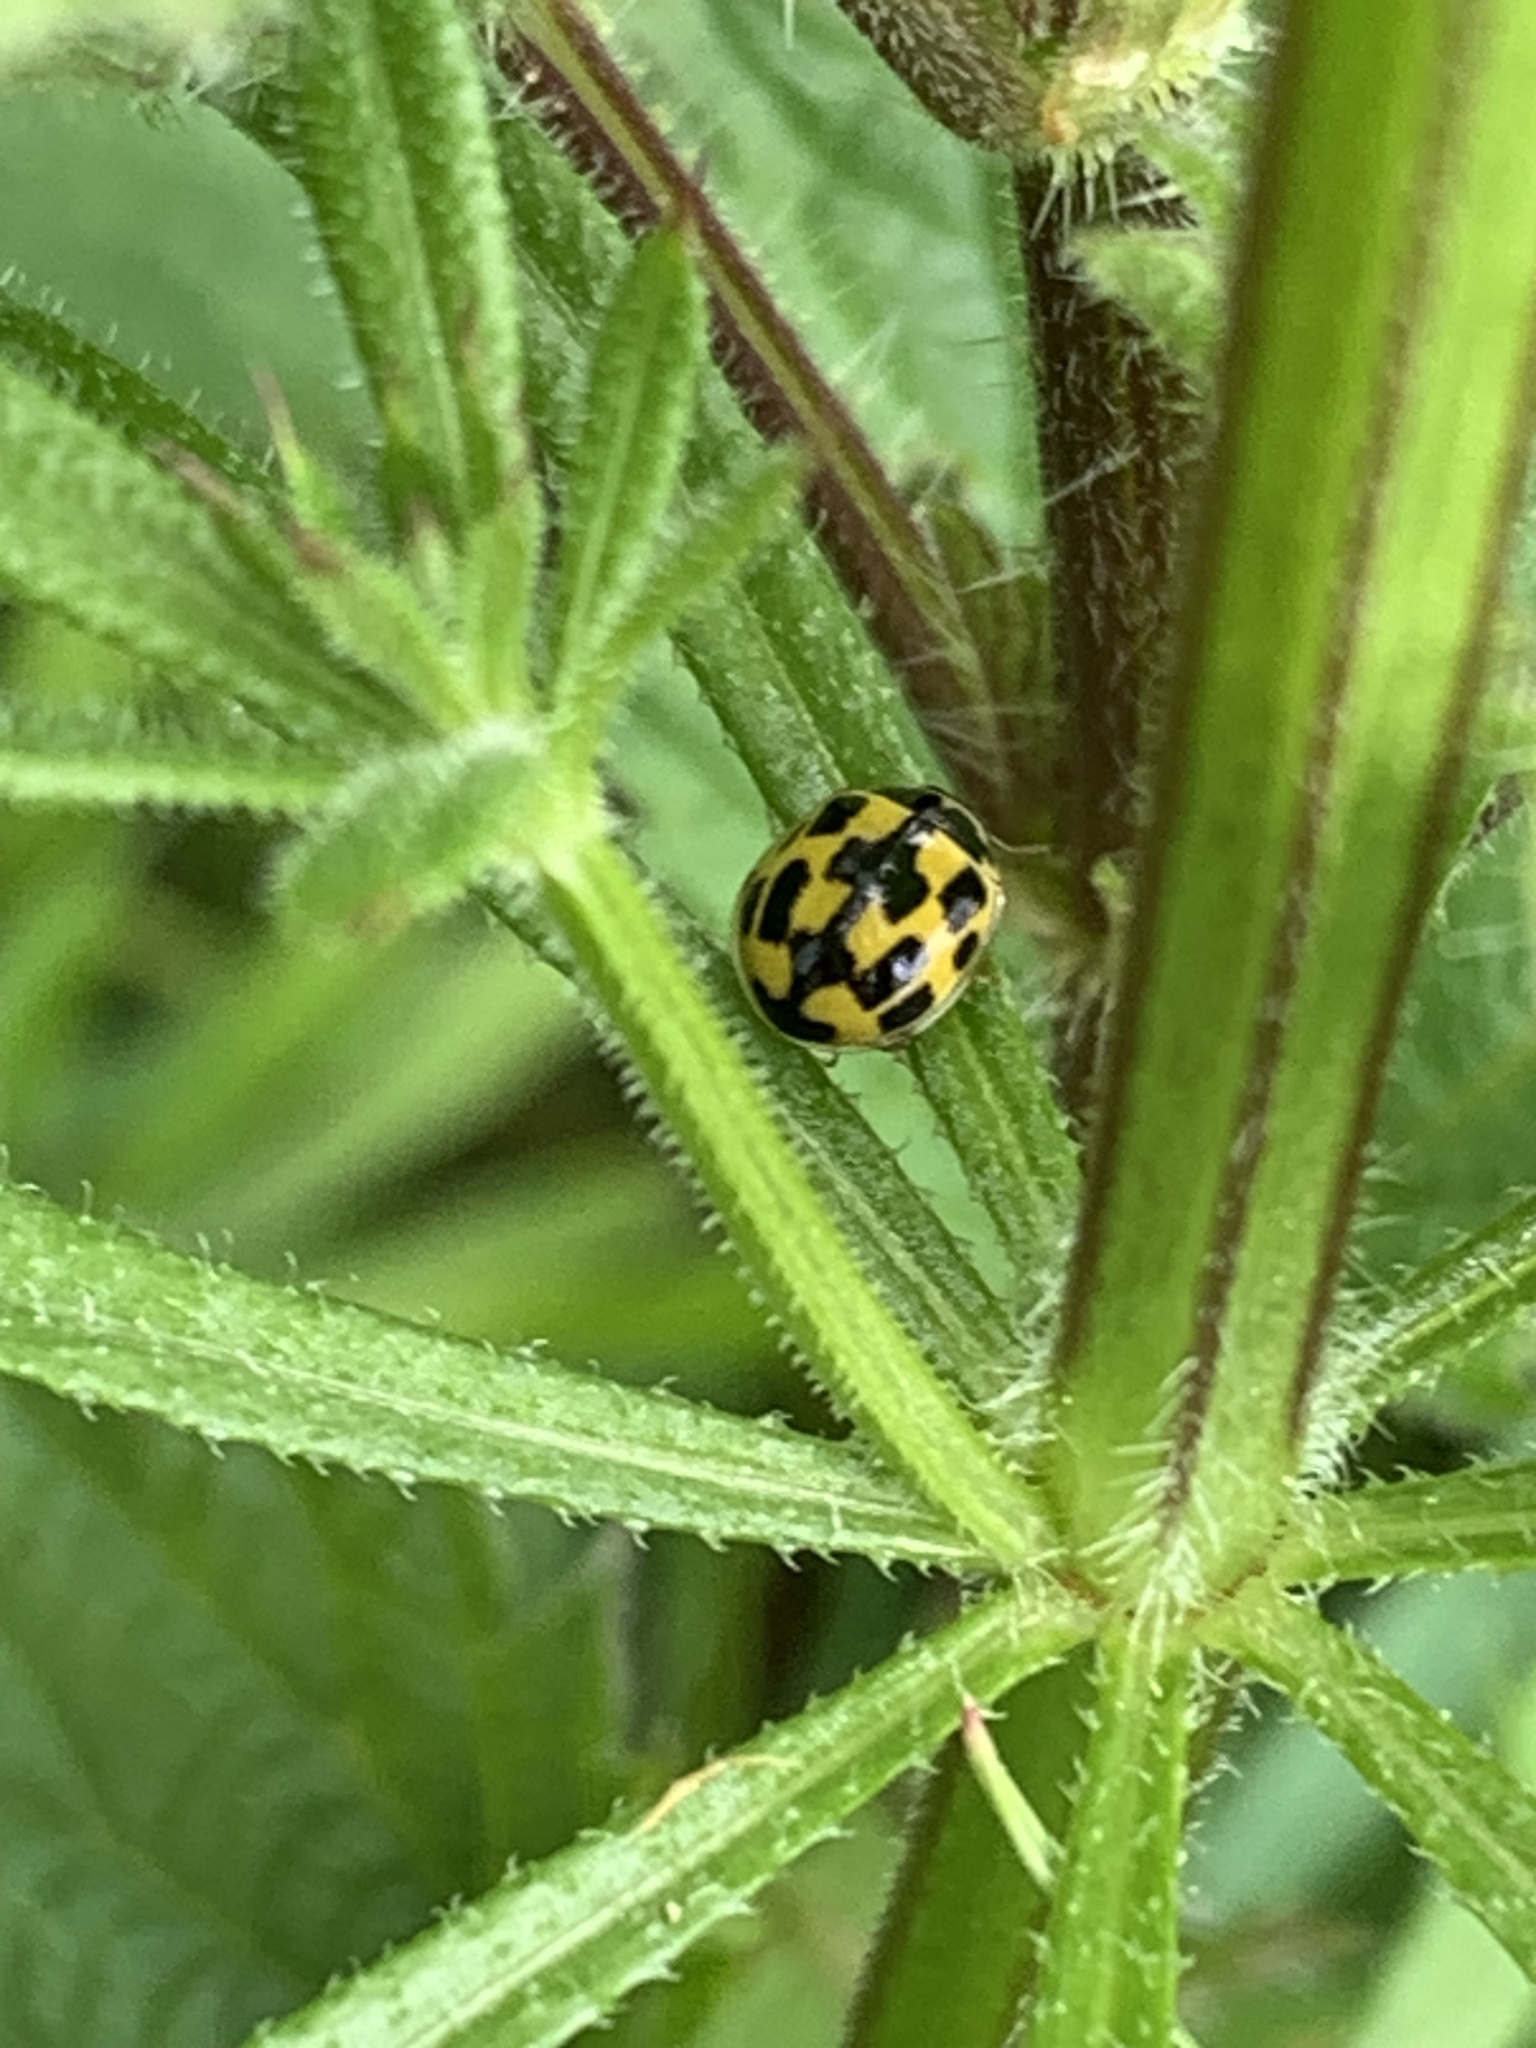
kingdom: Animalia
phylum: Arthropoda
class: Insecta
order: Coleoptera
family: Coccinellidae
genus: Propylaea
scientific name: Propylaea quatuordecimpunctata
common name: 14-spotted ladybird beetle
